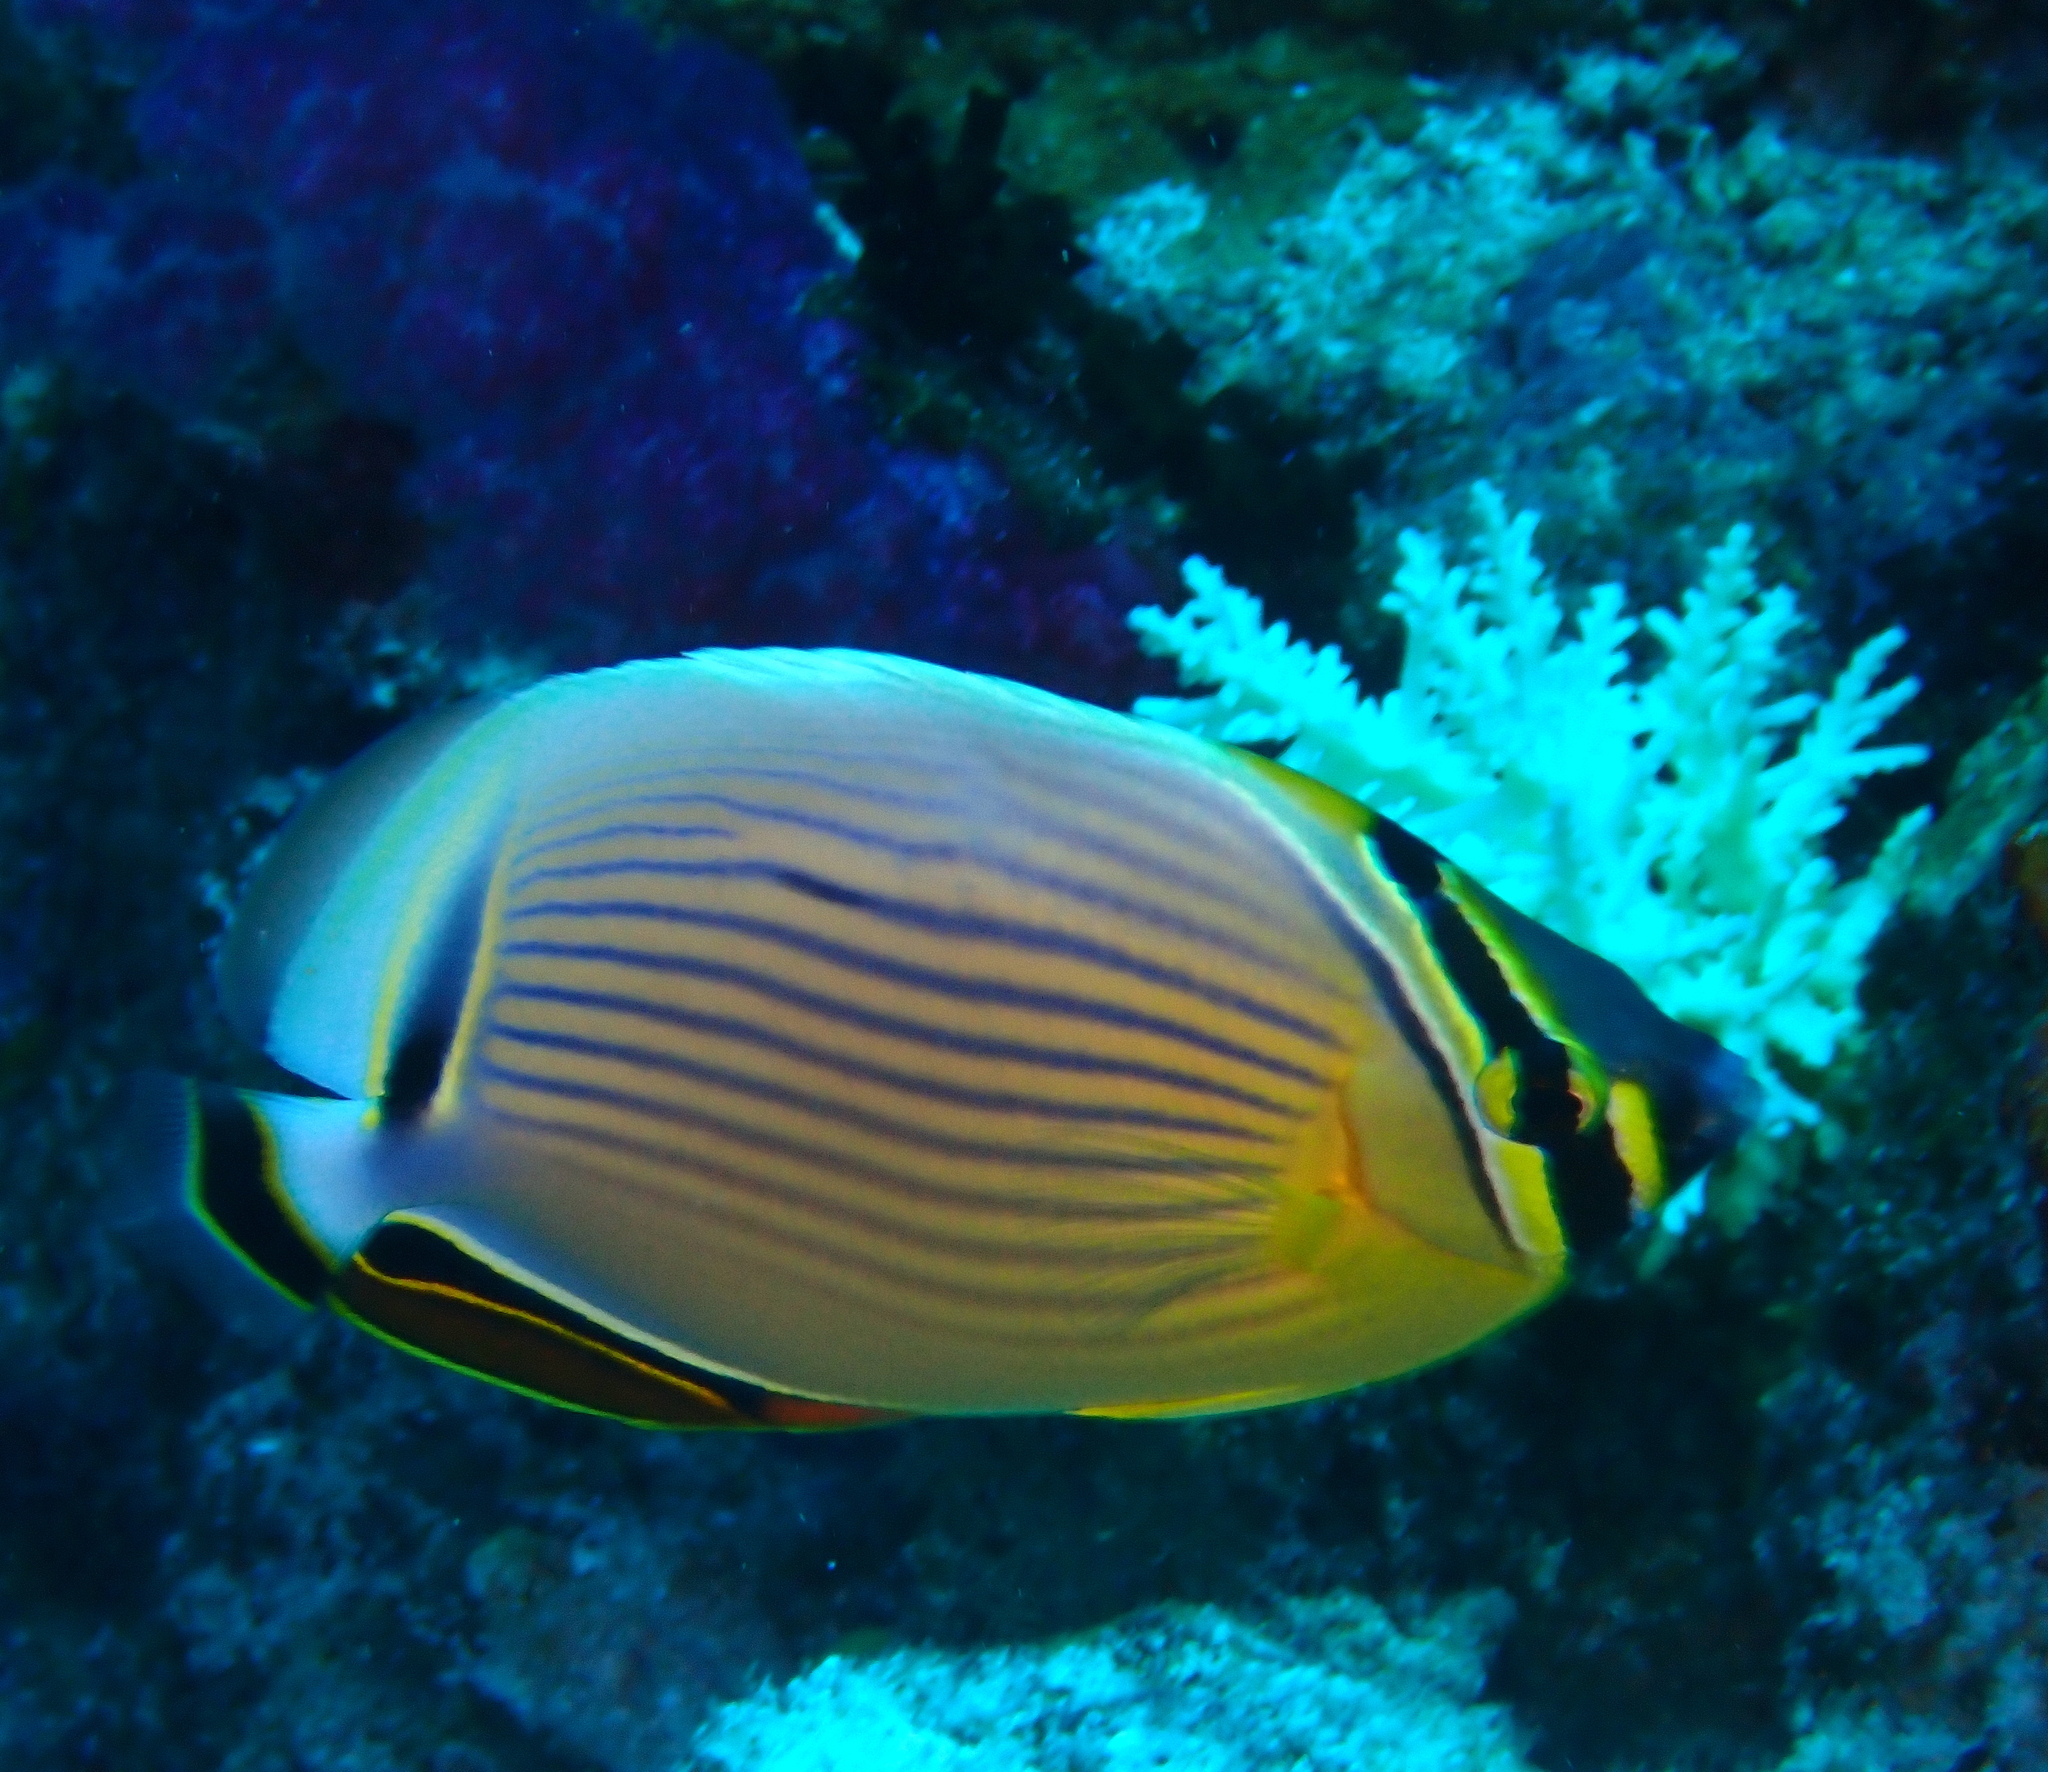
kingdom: Animalia
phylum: Chordata
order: Perciformes
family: Chaetodontidae
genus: Chaetodon
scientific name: Chaetodon lunulatus
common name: Redfin butterflyfish
